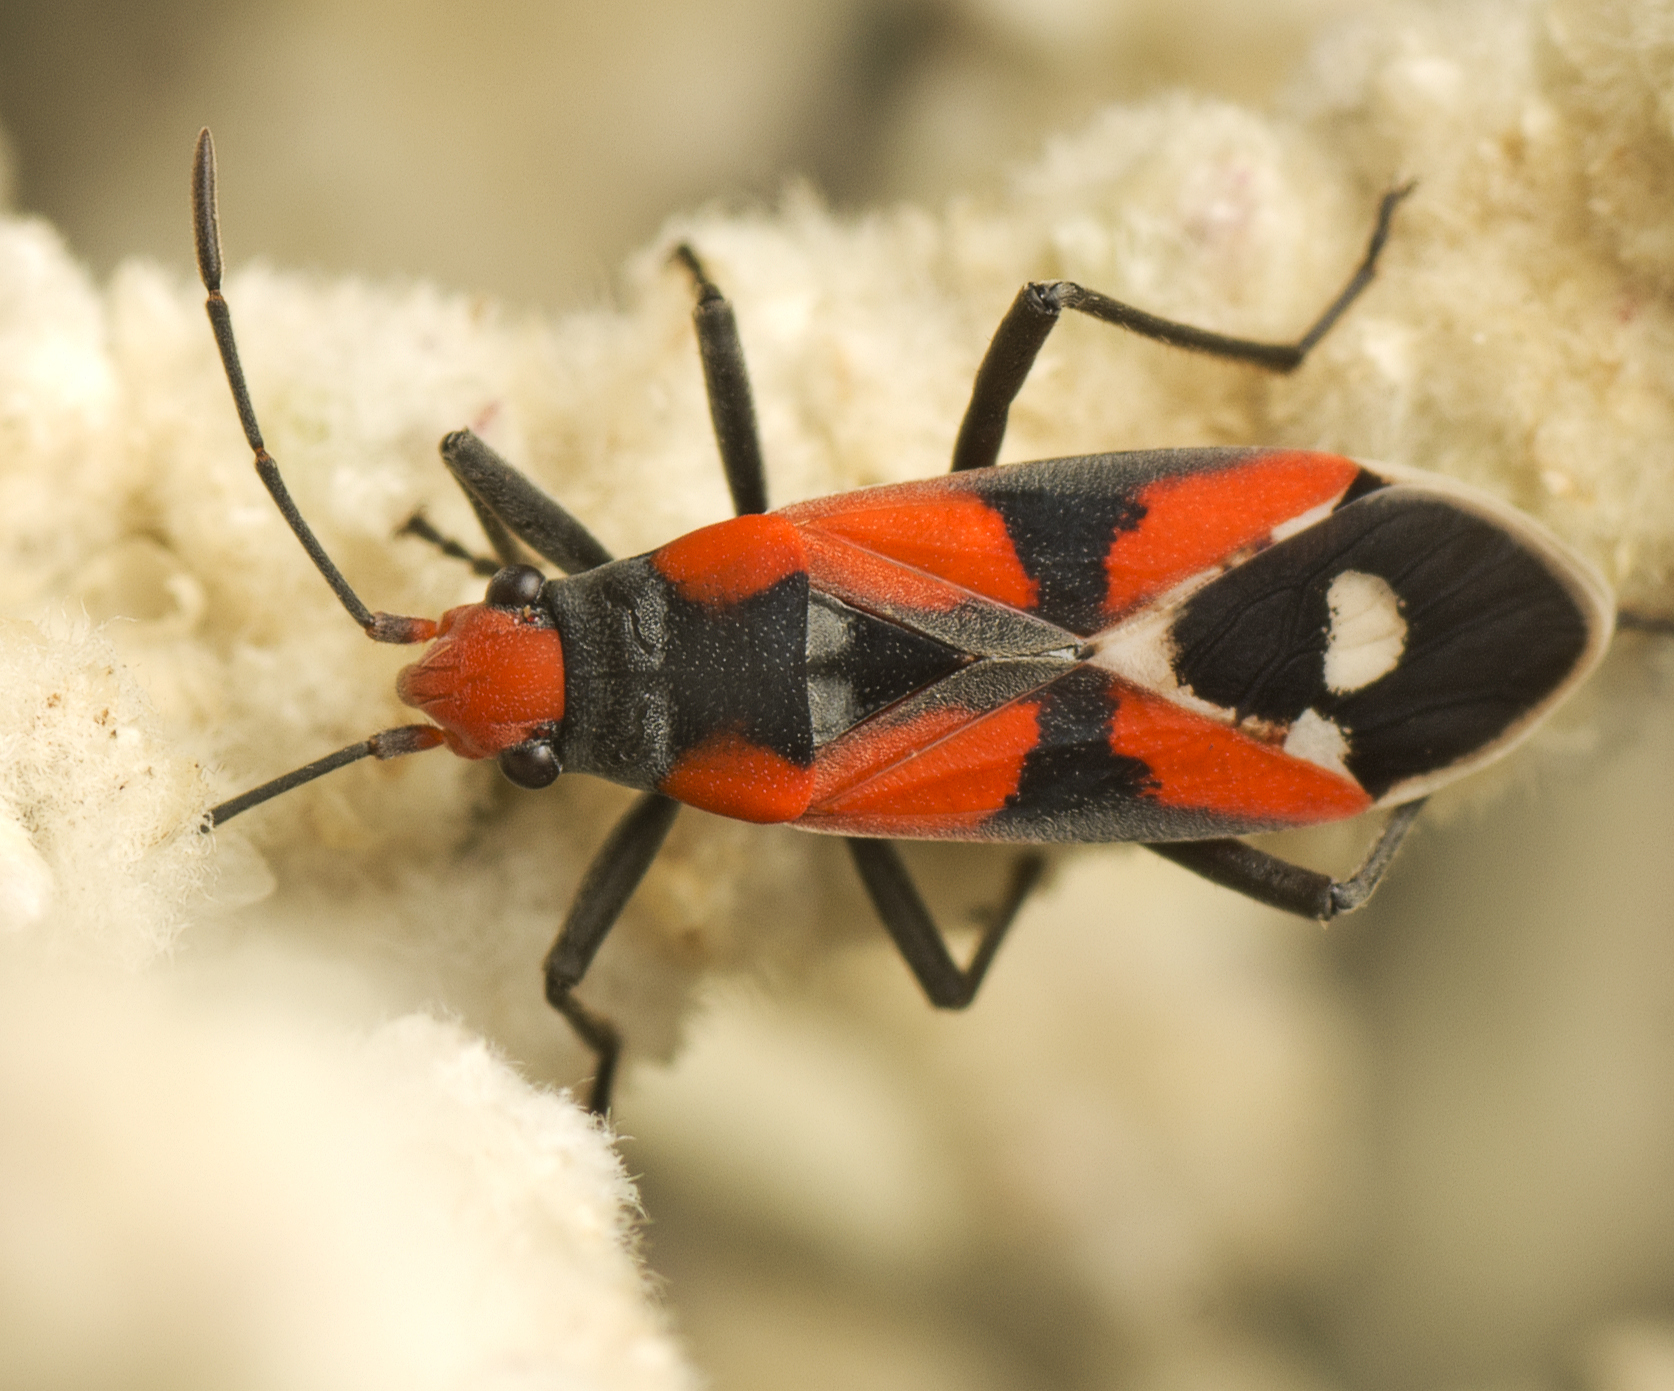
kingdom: Animalia
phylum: Arthropoda
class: Insecta
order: Hemiptera
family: Lygaeidae
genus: Melanerythrus
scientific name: Melanerythrus mactans
